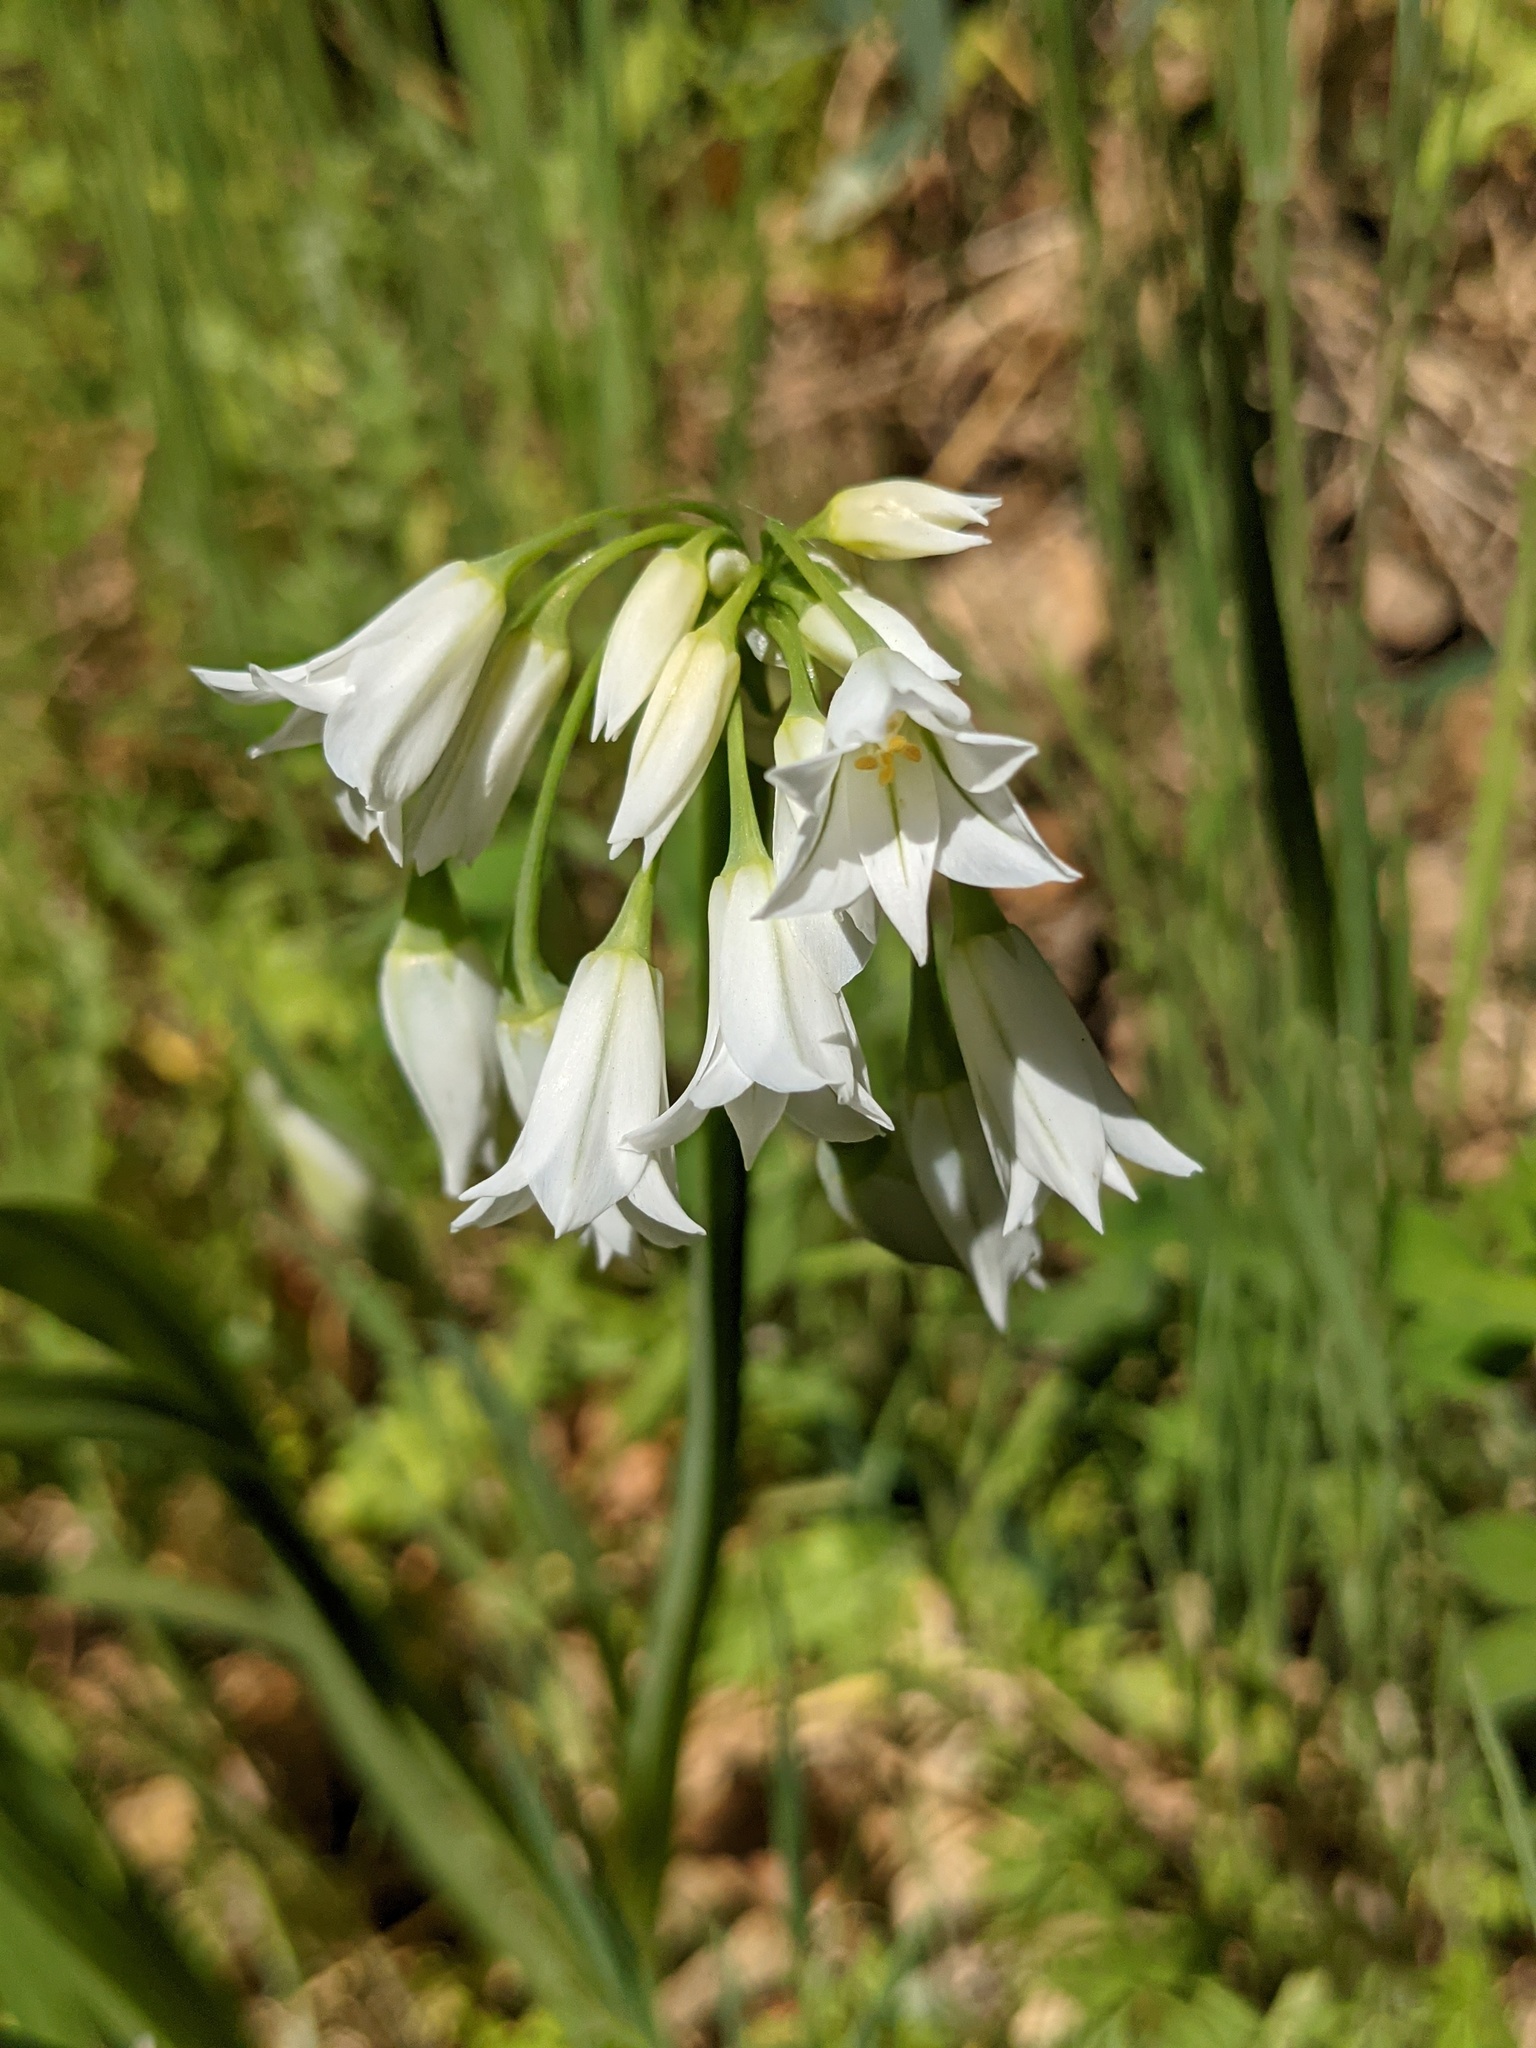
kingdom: Plantae
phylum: Tracheophyta
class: Liliopsida
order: Asparagales
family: Amaryllidaceae
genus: Allium
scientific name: Allium triquetrum
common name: Three-cornered garlic
